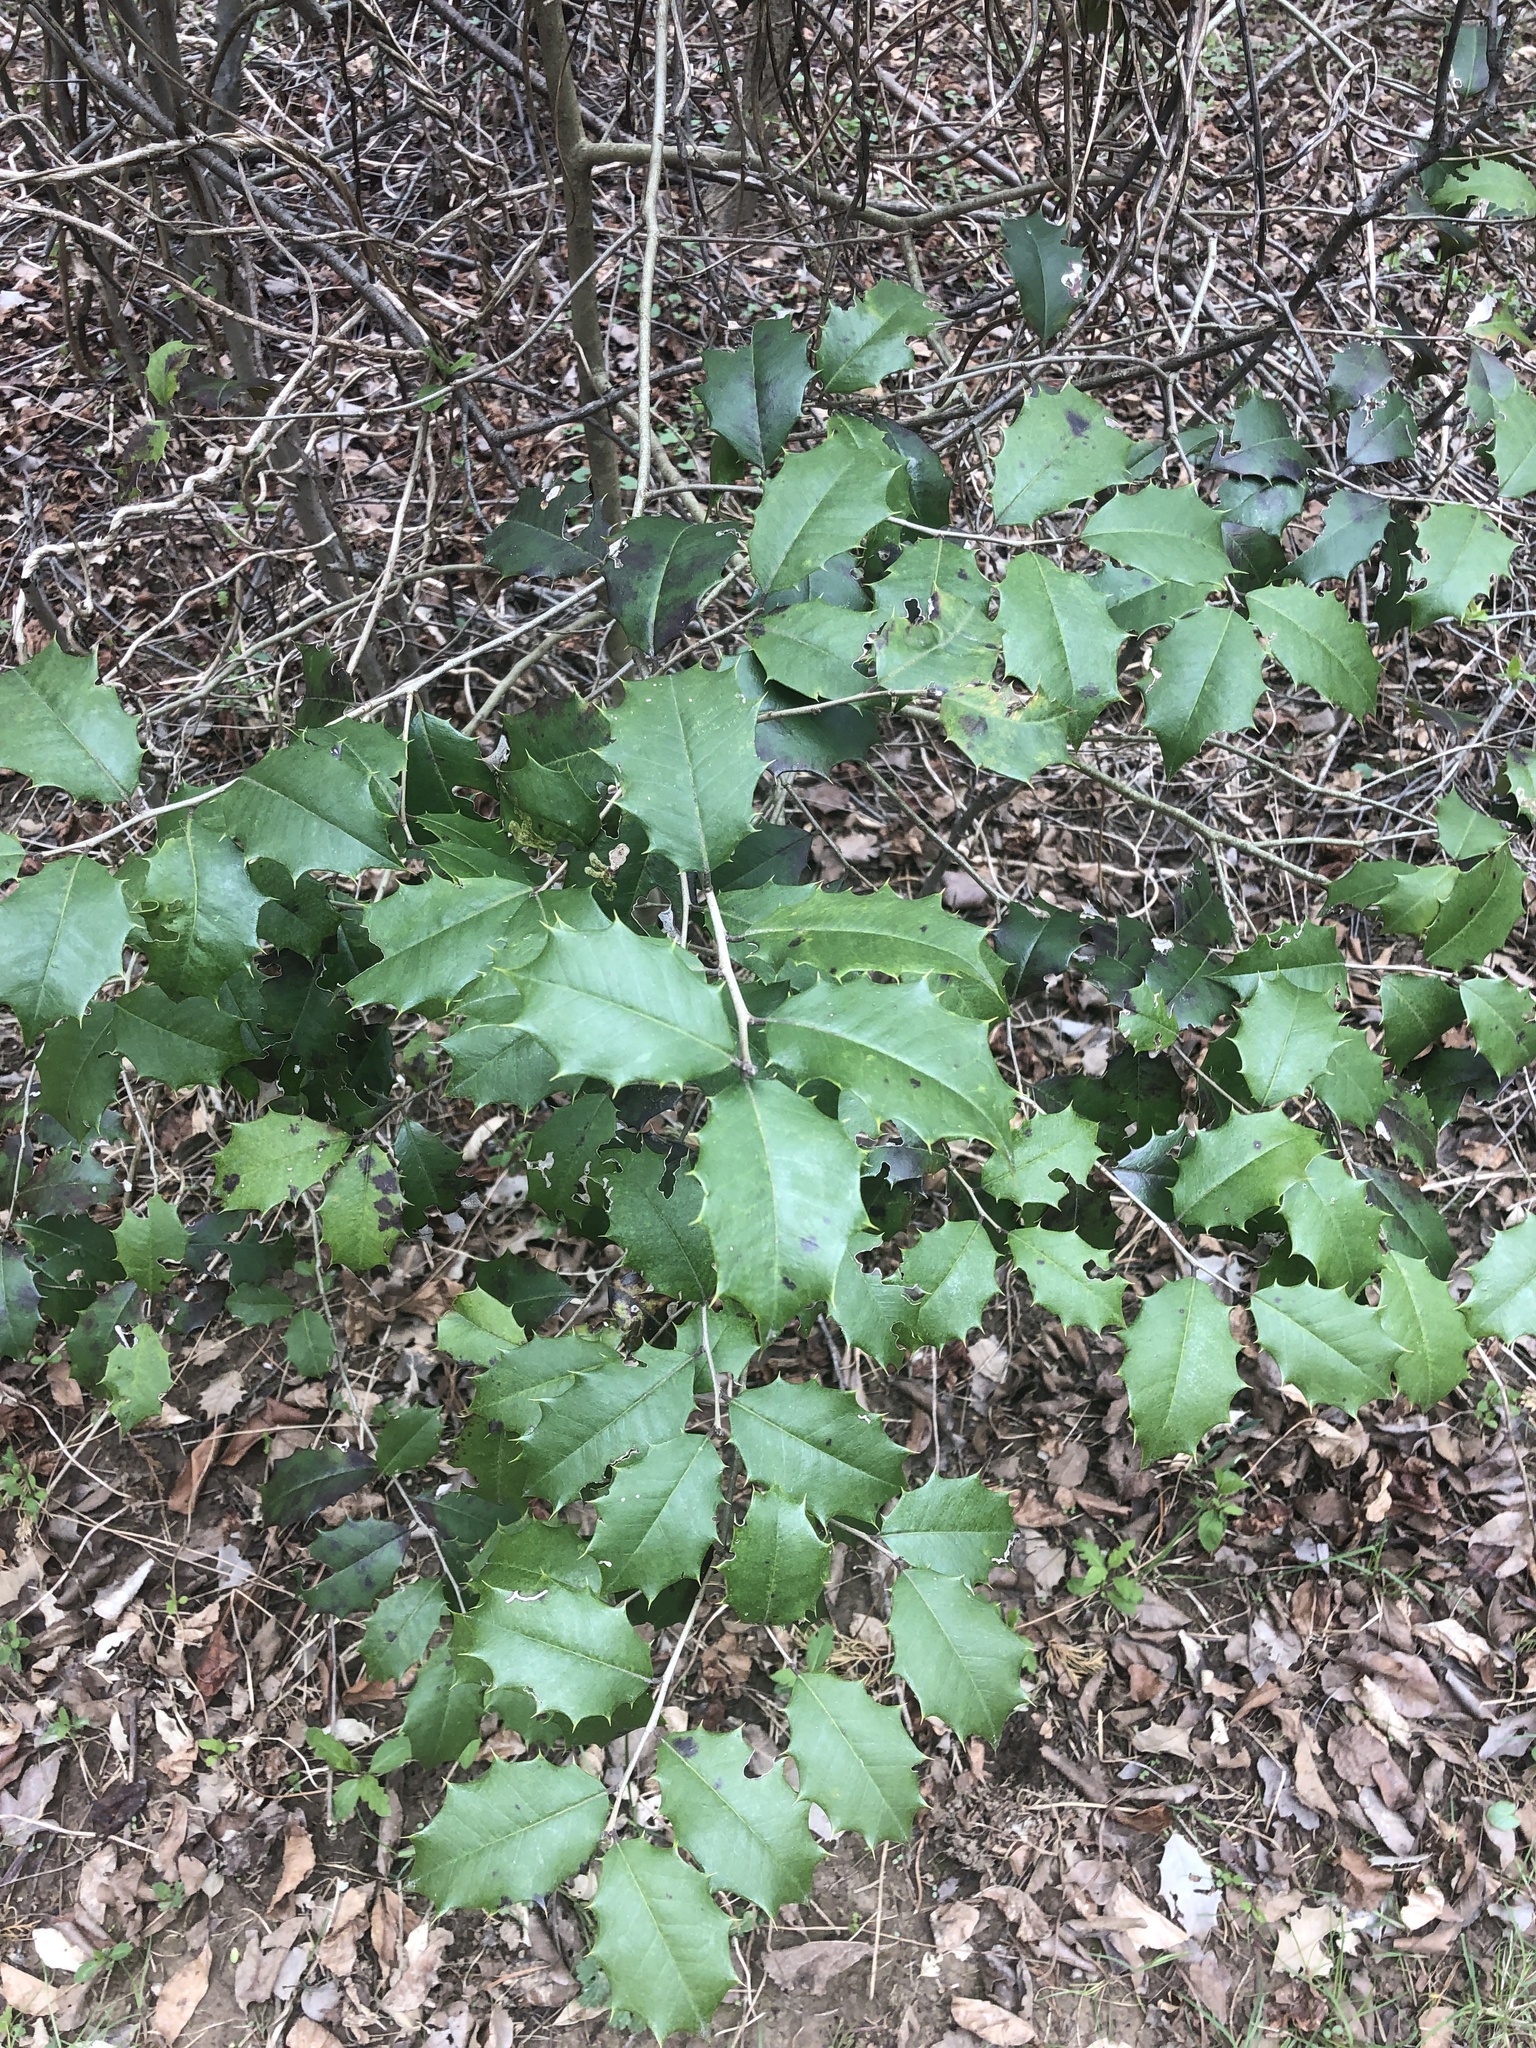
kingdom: Plantae
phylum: Tracheophyta
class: Magnoliopsida
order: Aquifoliales
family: Aquifoliaceae
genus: Ilex
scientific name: Ilex opaca
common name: American holly
